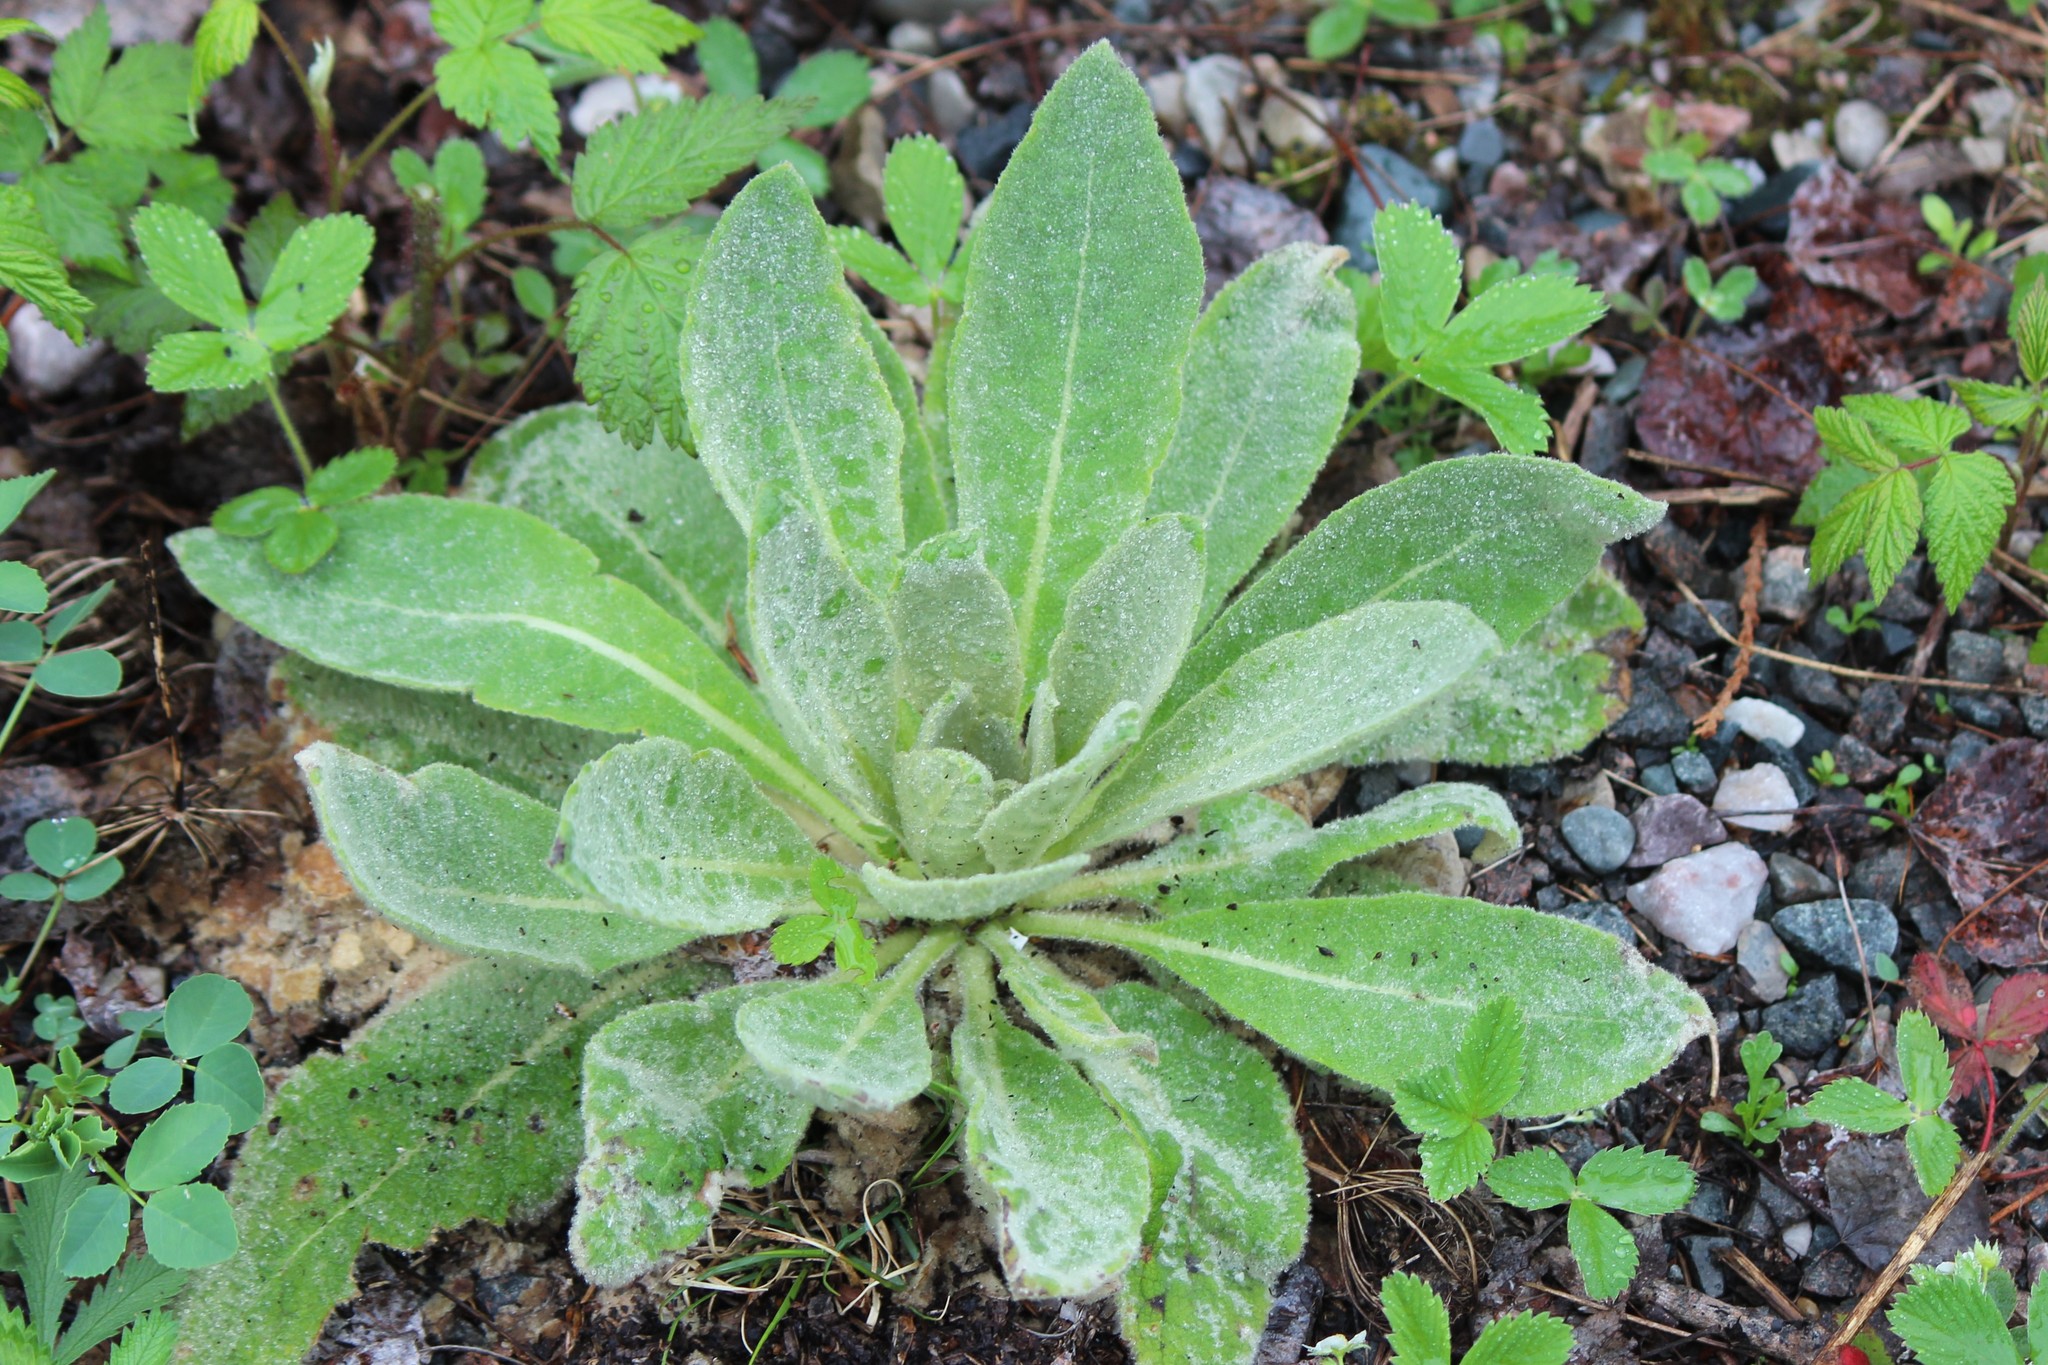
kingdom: Plantae
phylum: Tracheophyta
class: Magnoliopsida
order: Lamiales
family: Scrophulariaceae
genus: Verbascum
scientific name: Verbascum thapsus
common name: Common mullein
